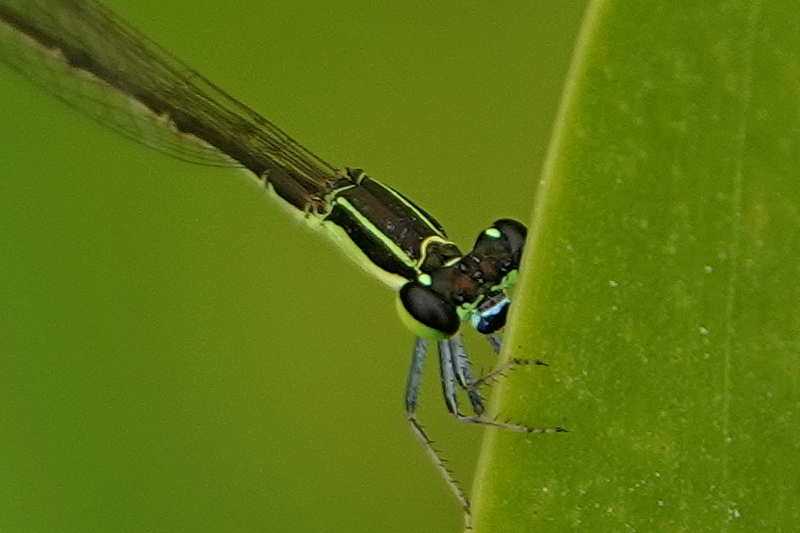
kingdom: Animalia
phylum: Arthropoda
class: Insecta
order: Odonata
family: Coenagrionidae
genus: Agriocnemis
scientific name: Agriocnemis pygmaea
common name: Pygmy wisp
